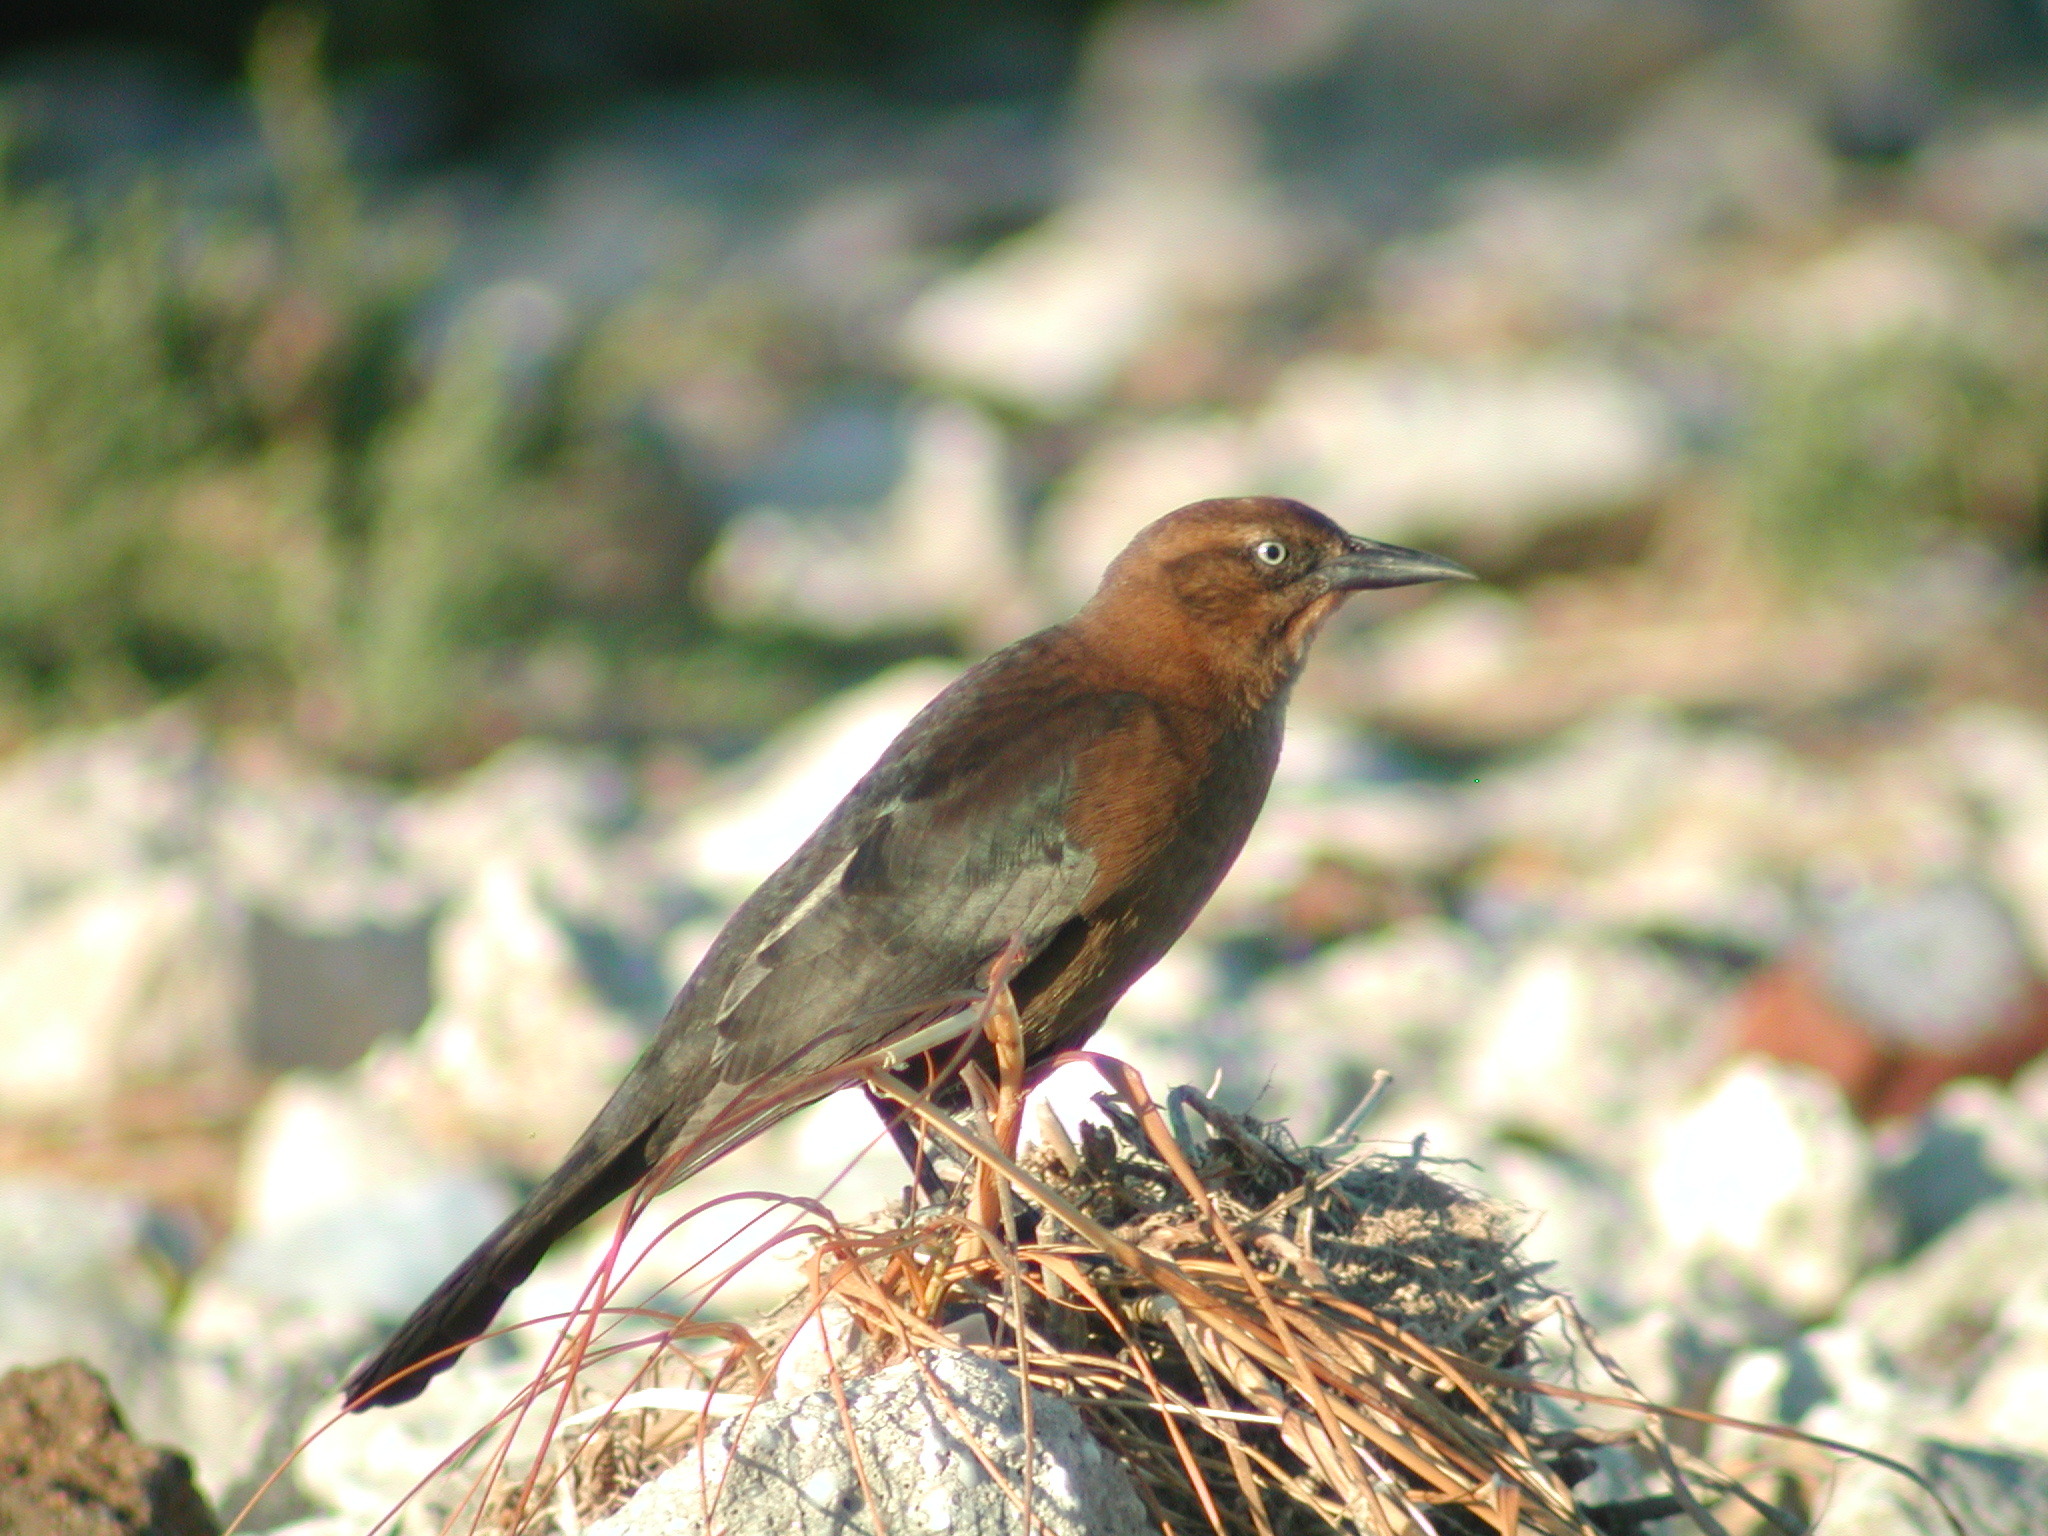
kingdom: Animalia
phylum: Chordata
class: Aves
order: Passeriformes
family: Icteridae
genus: Quiscalus
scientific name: Quiscalus major
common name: Boat-tailed grackle
